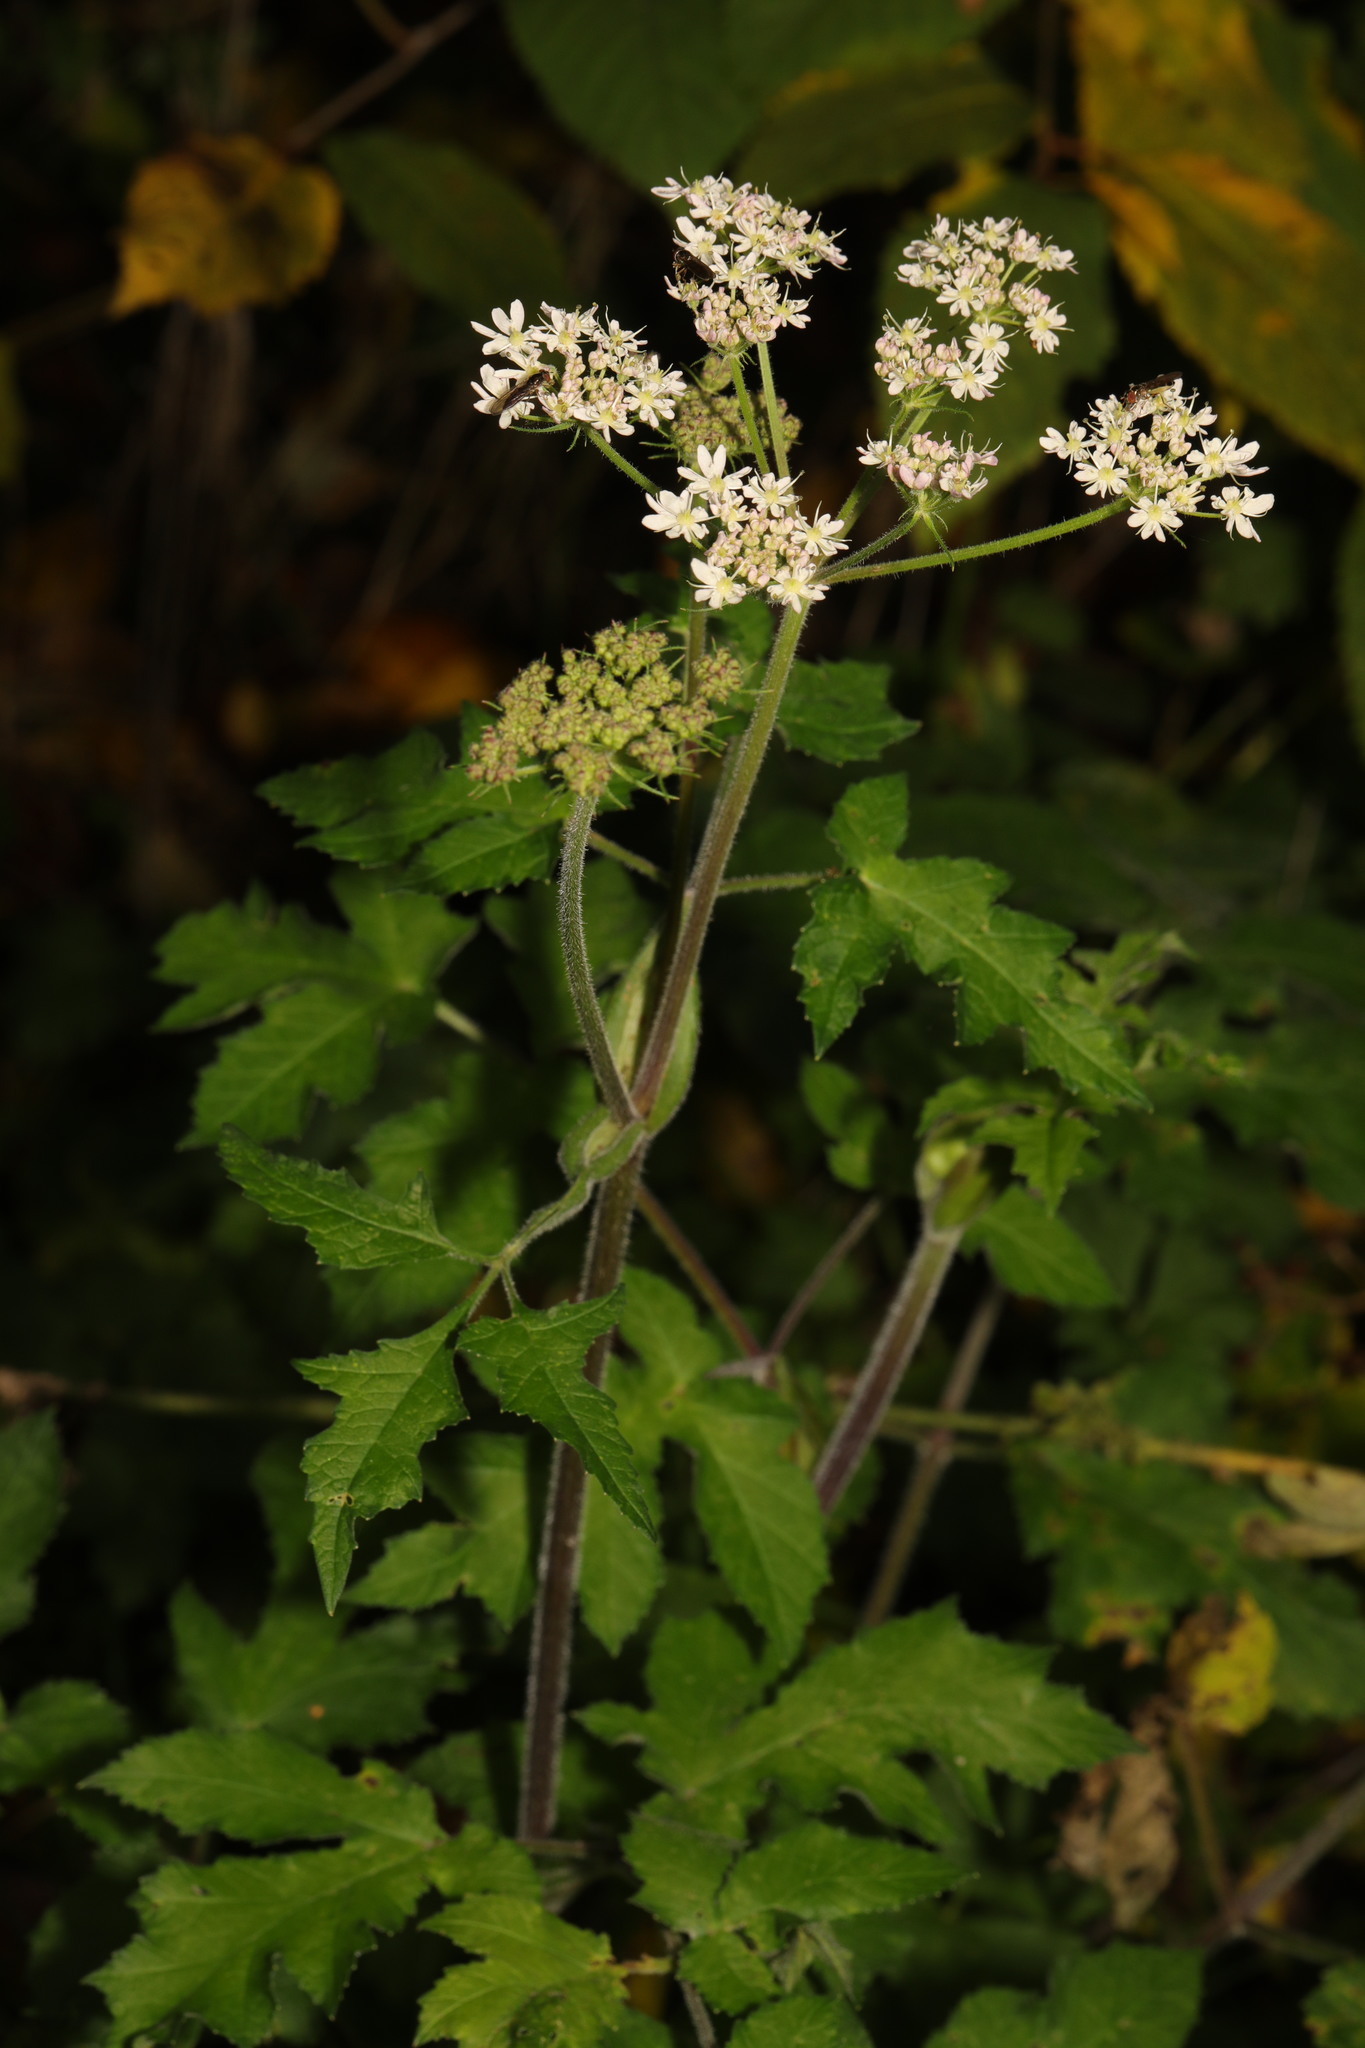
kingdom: Plantae
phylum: Tracheophyta
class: Magnoliopsida
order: Apiales
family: Apiaceae
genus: Heracleum
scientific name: Heracleum sphondylium
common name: Hogweed
